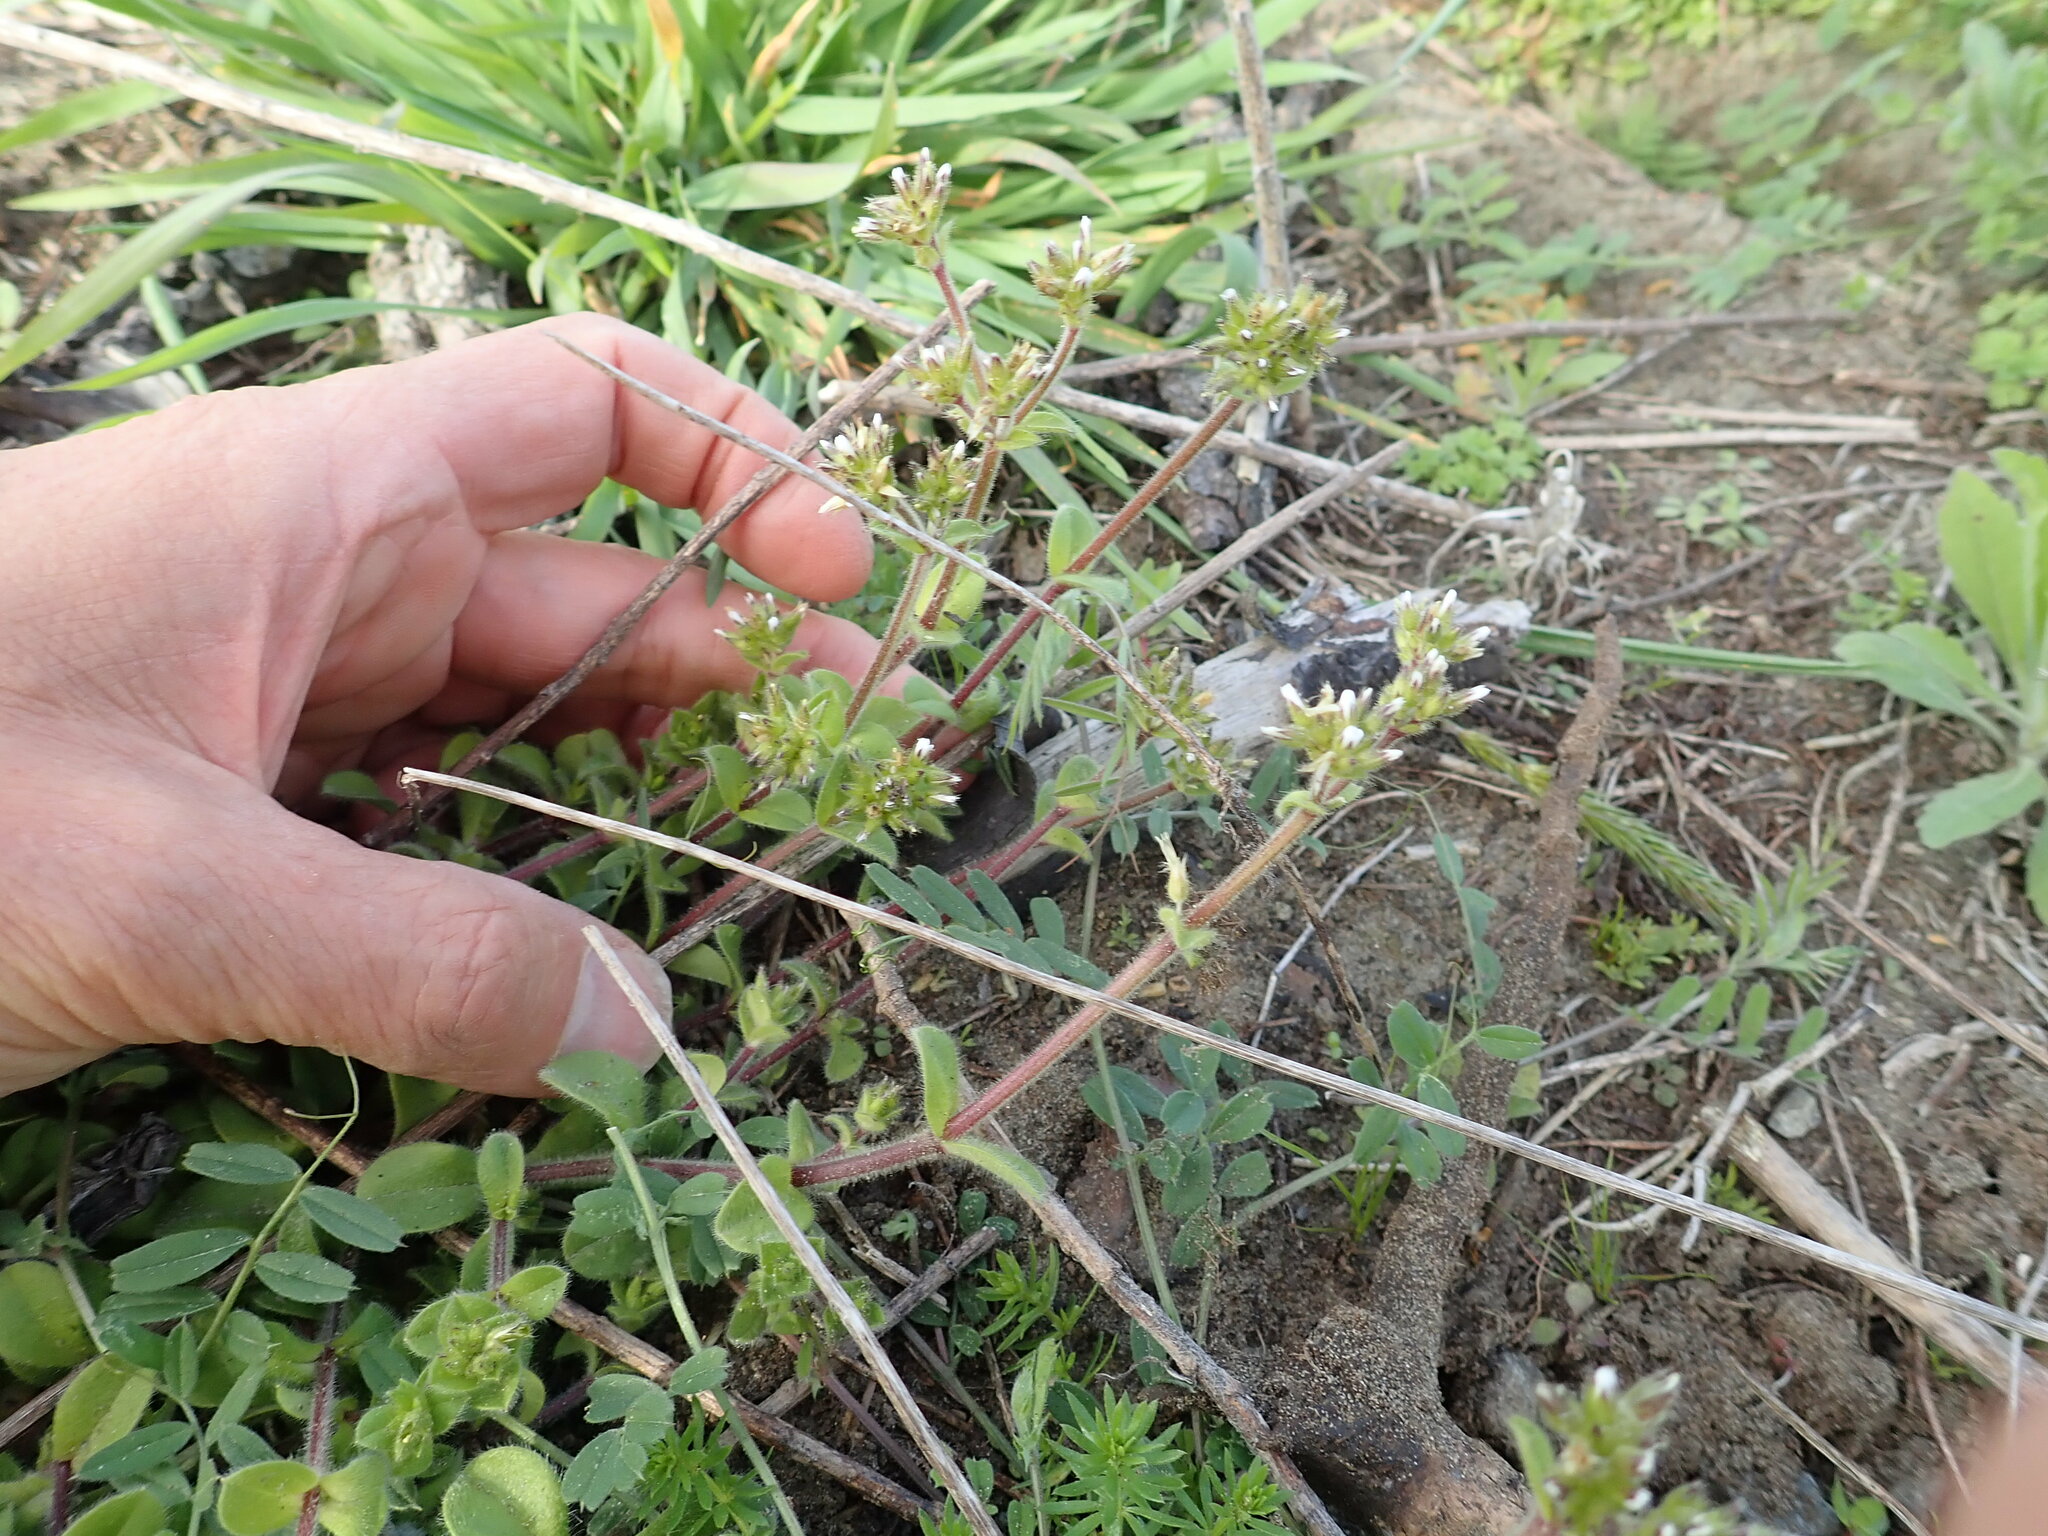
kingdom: Plantae
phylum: Tracheophyta
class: Magnoliopsida
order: Caryophyllales
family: Caryophyllaceae
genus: Cerastium
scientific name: Cerastium fontanum
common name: Common mouse-ear
